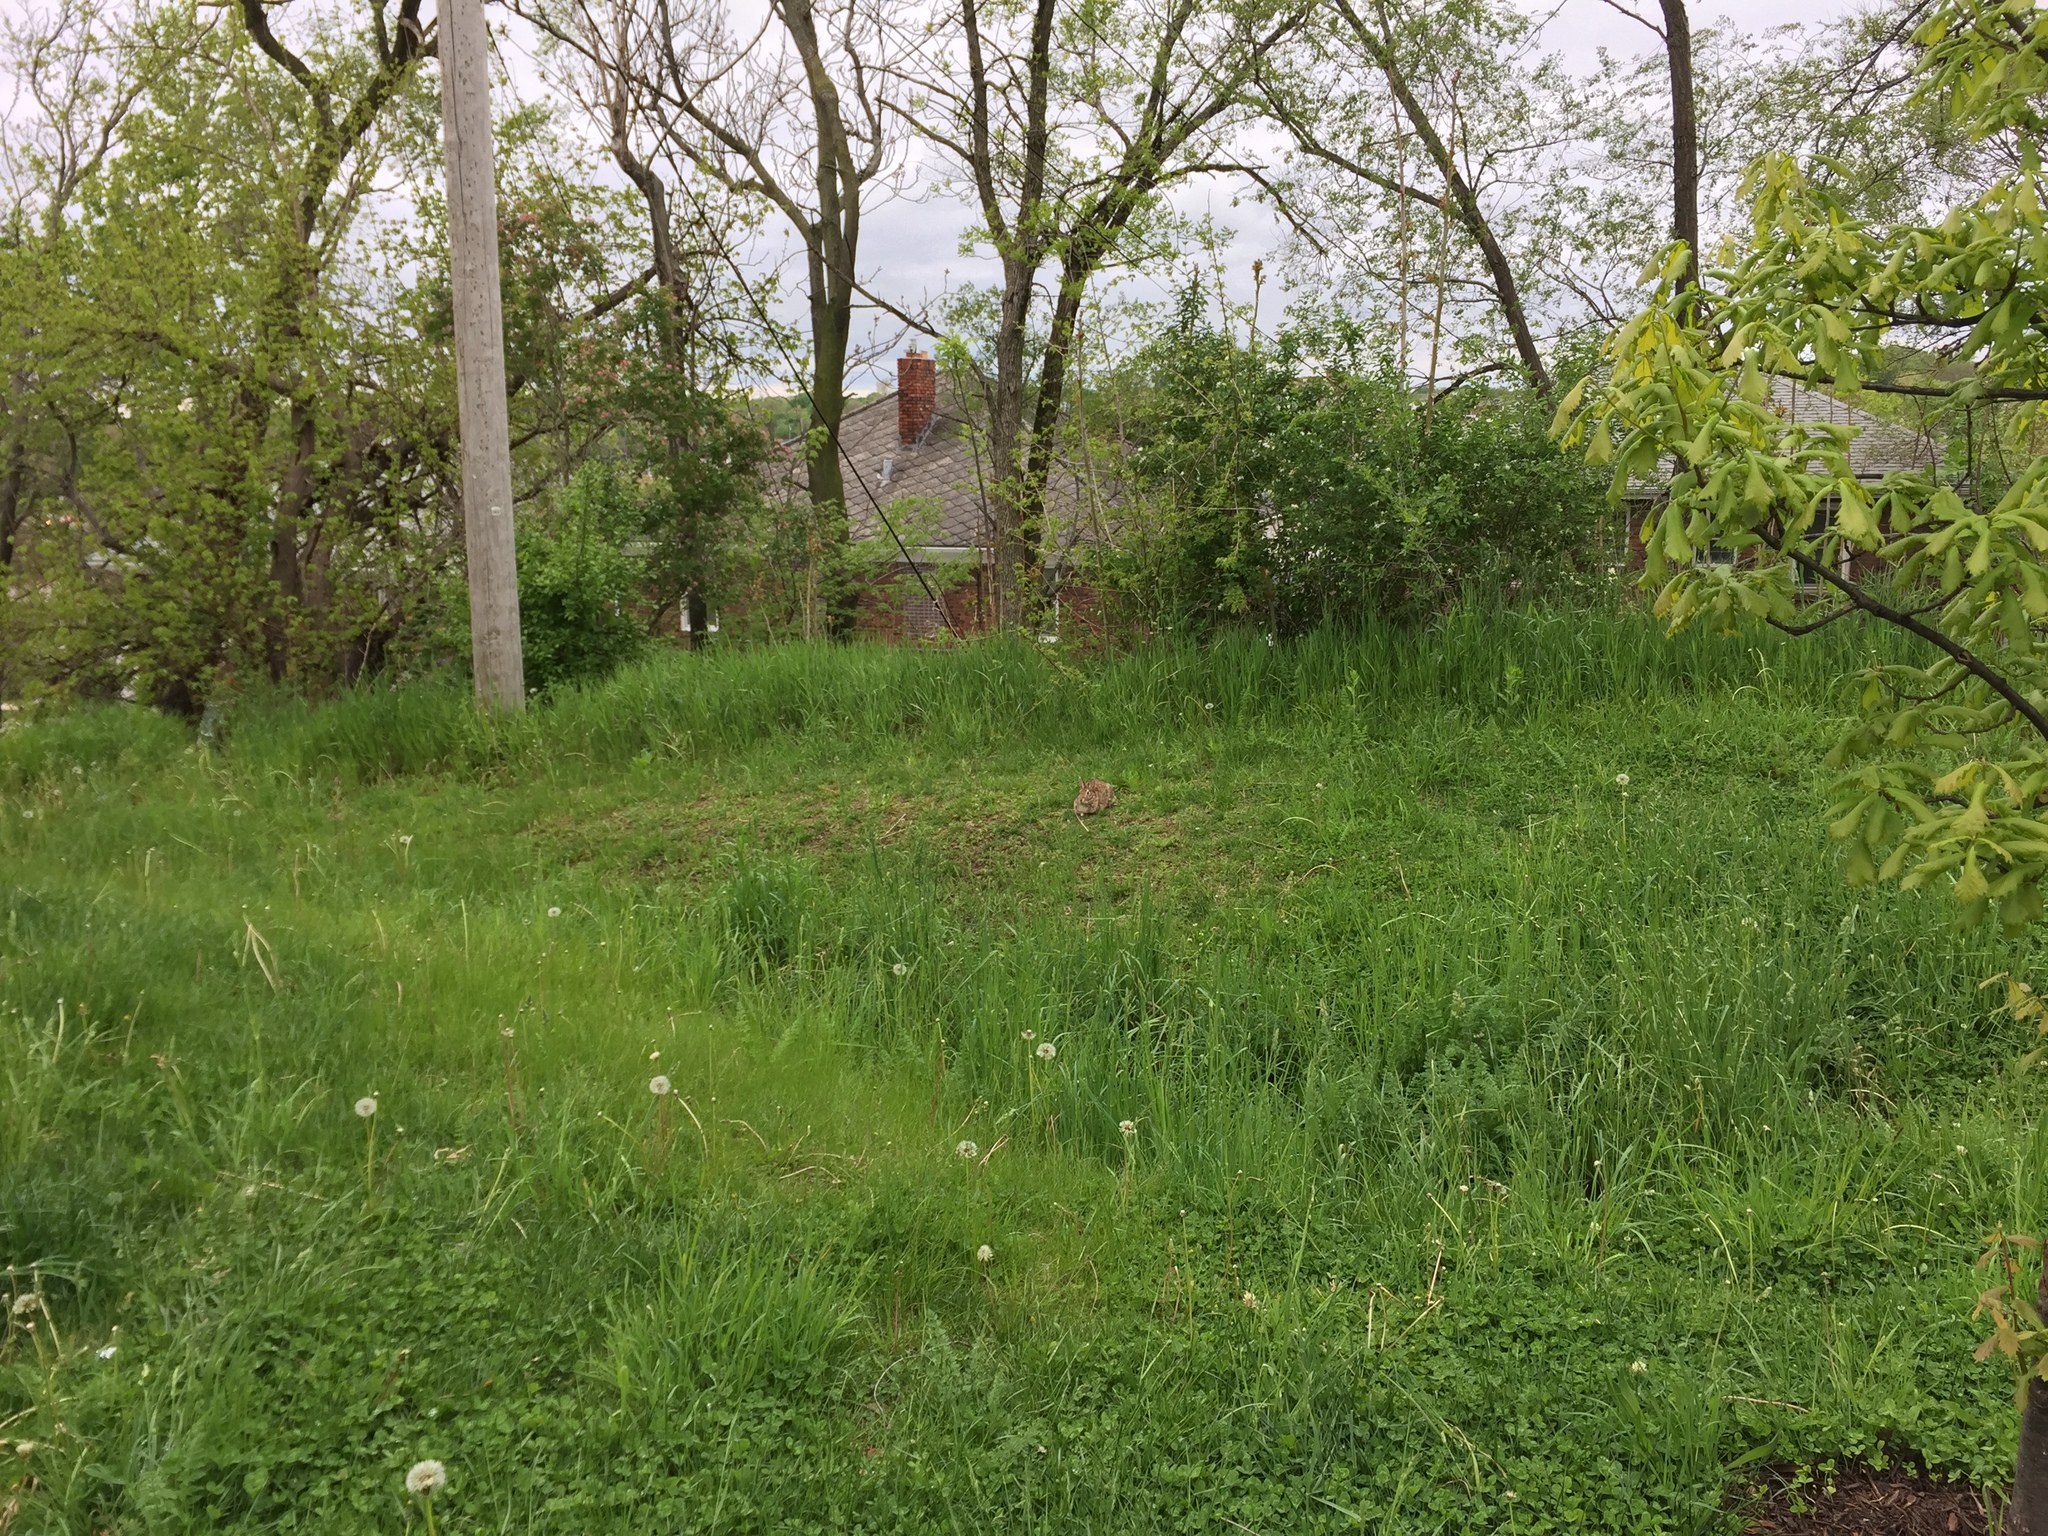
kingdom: Animalia
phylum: Chordata
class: Mammalia
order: Lagomorpha
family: Leporidae
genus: Sylvilagus
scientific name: Sylvilagus floridanus
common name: Eastern cottontail
